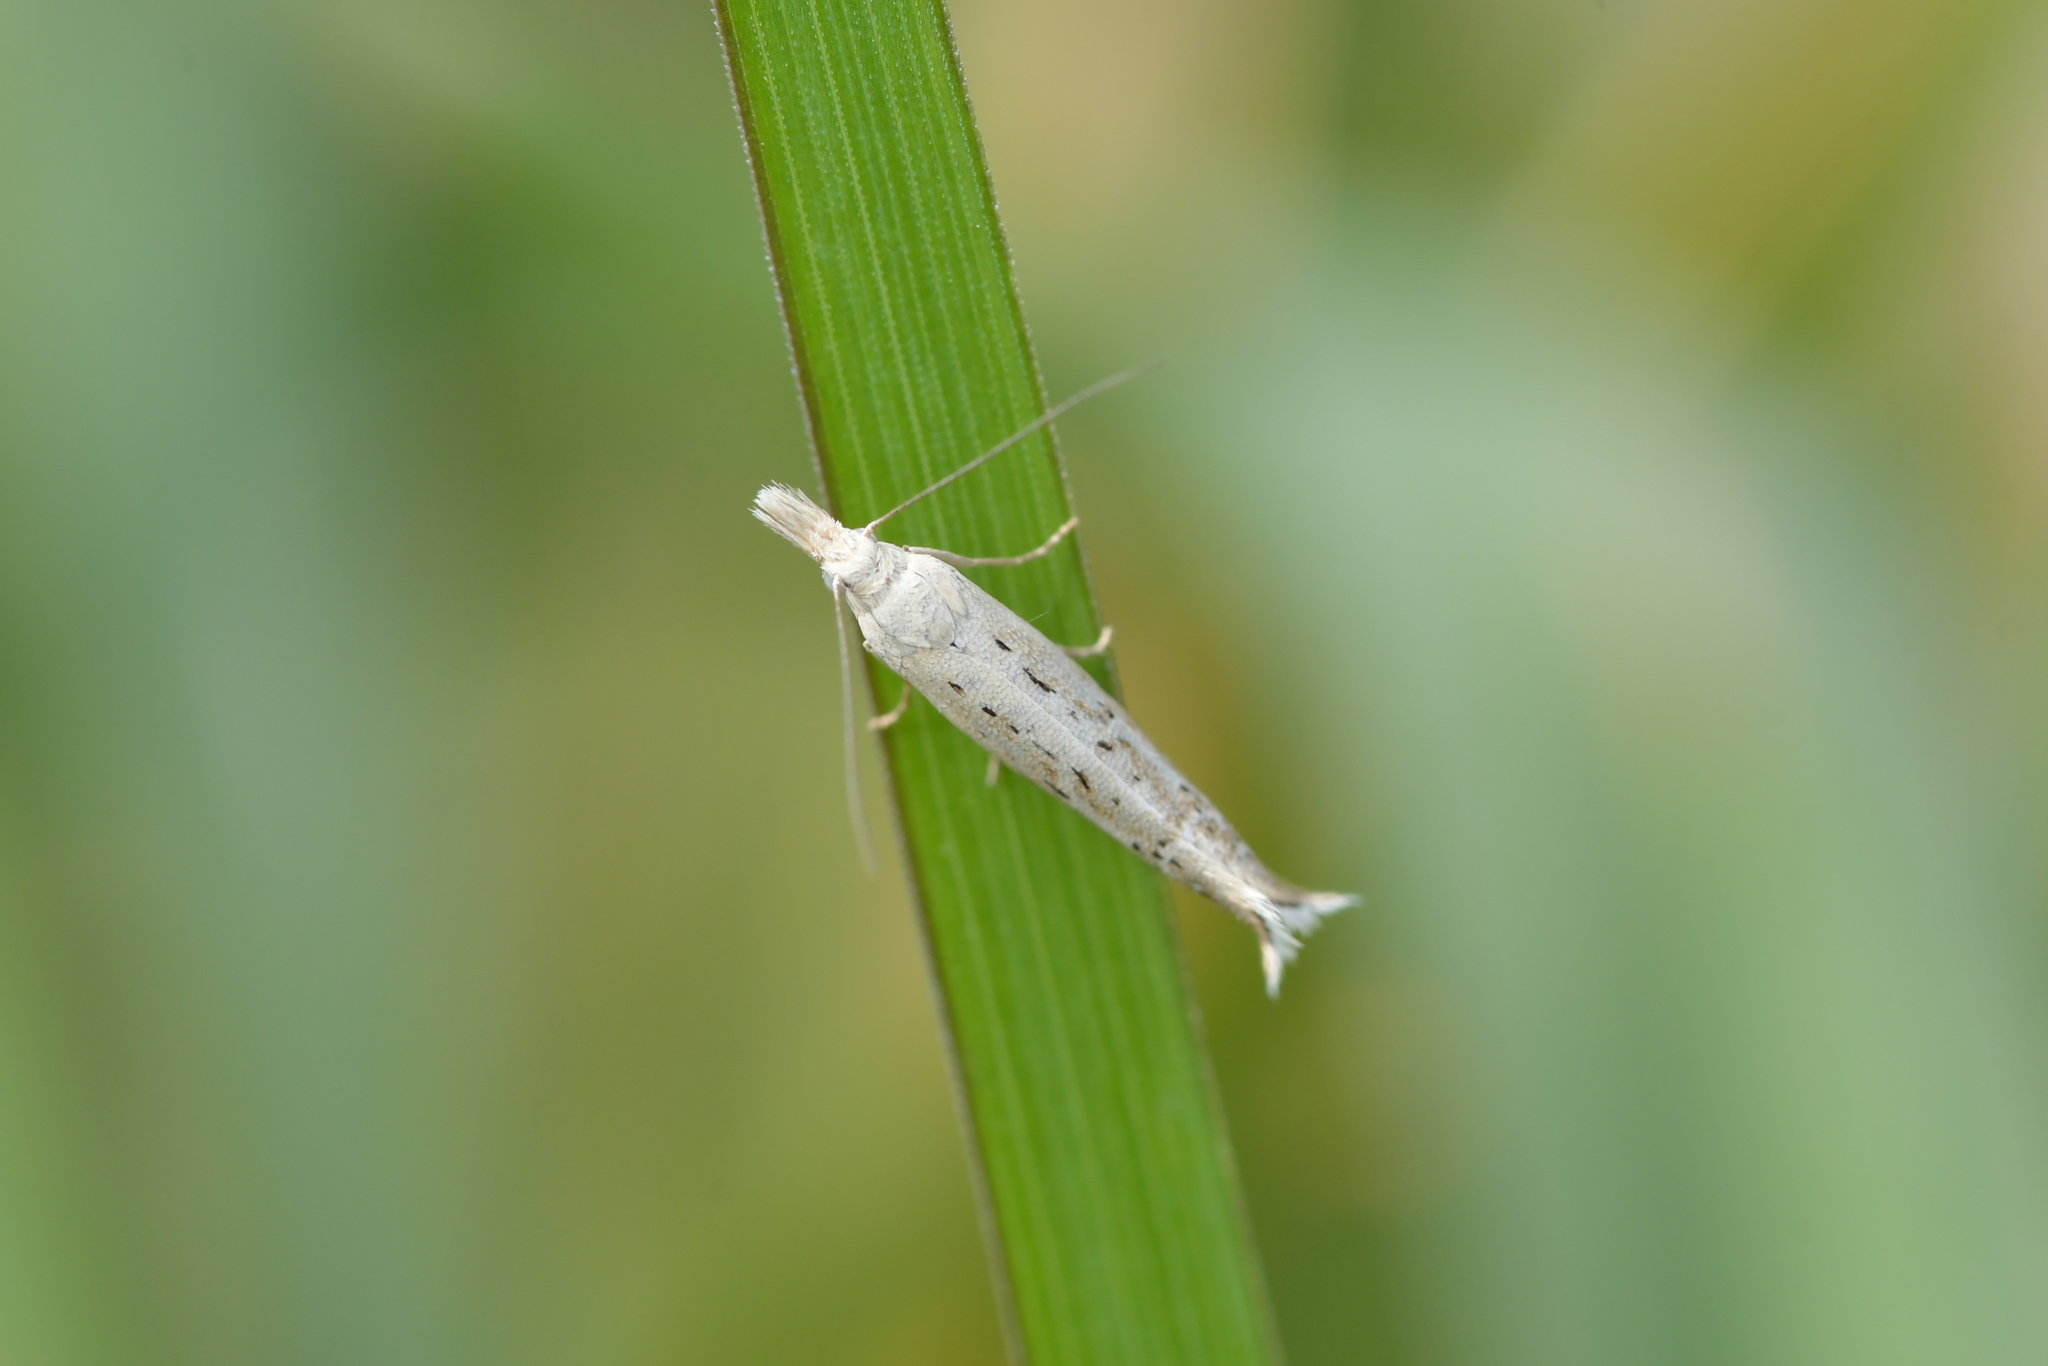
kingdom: Animalia
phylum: Arthropoda
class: Insecta
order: Lepidoptera
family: Glyphipterigidae
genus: Glyphipterix
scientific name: Glyphipterix achlyoessa
